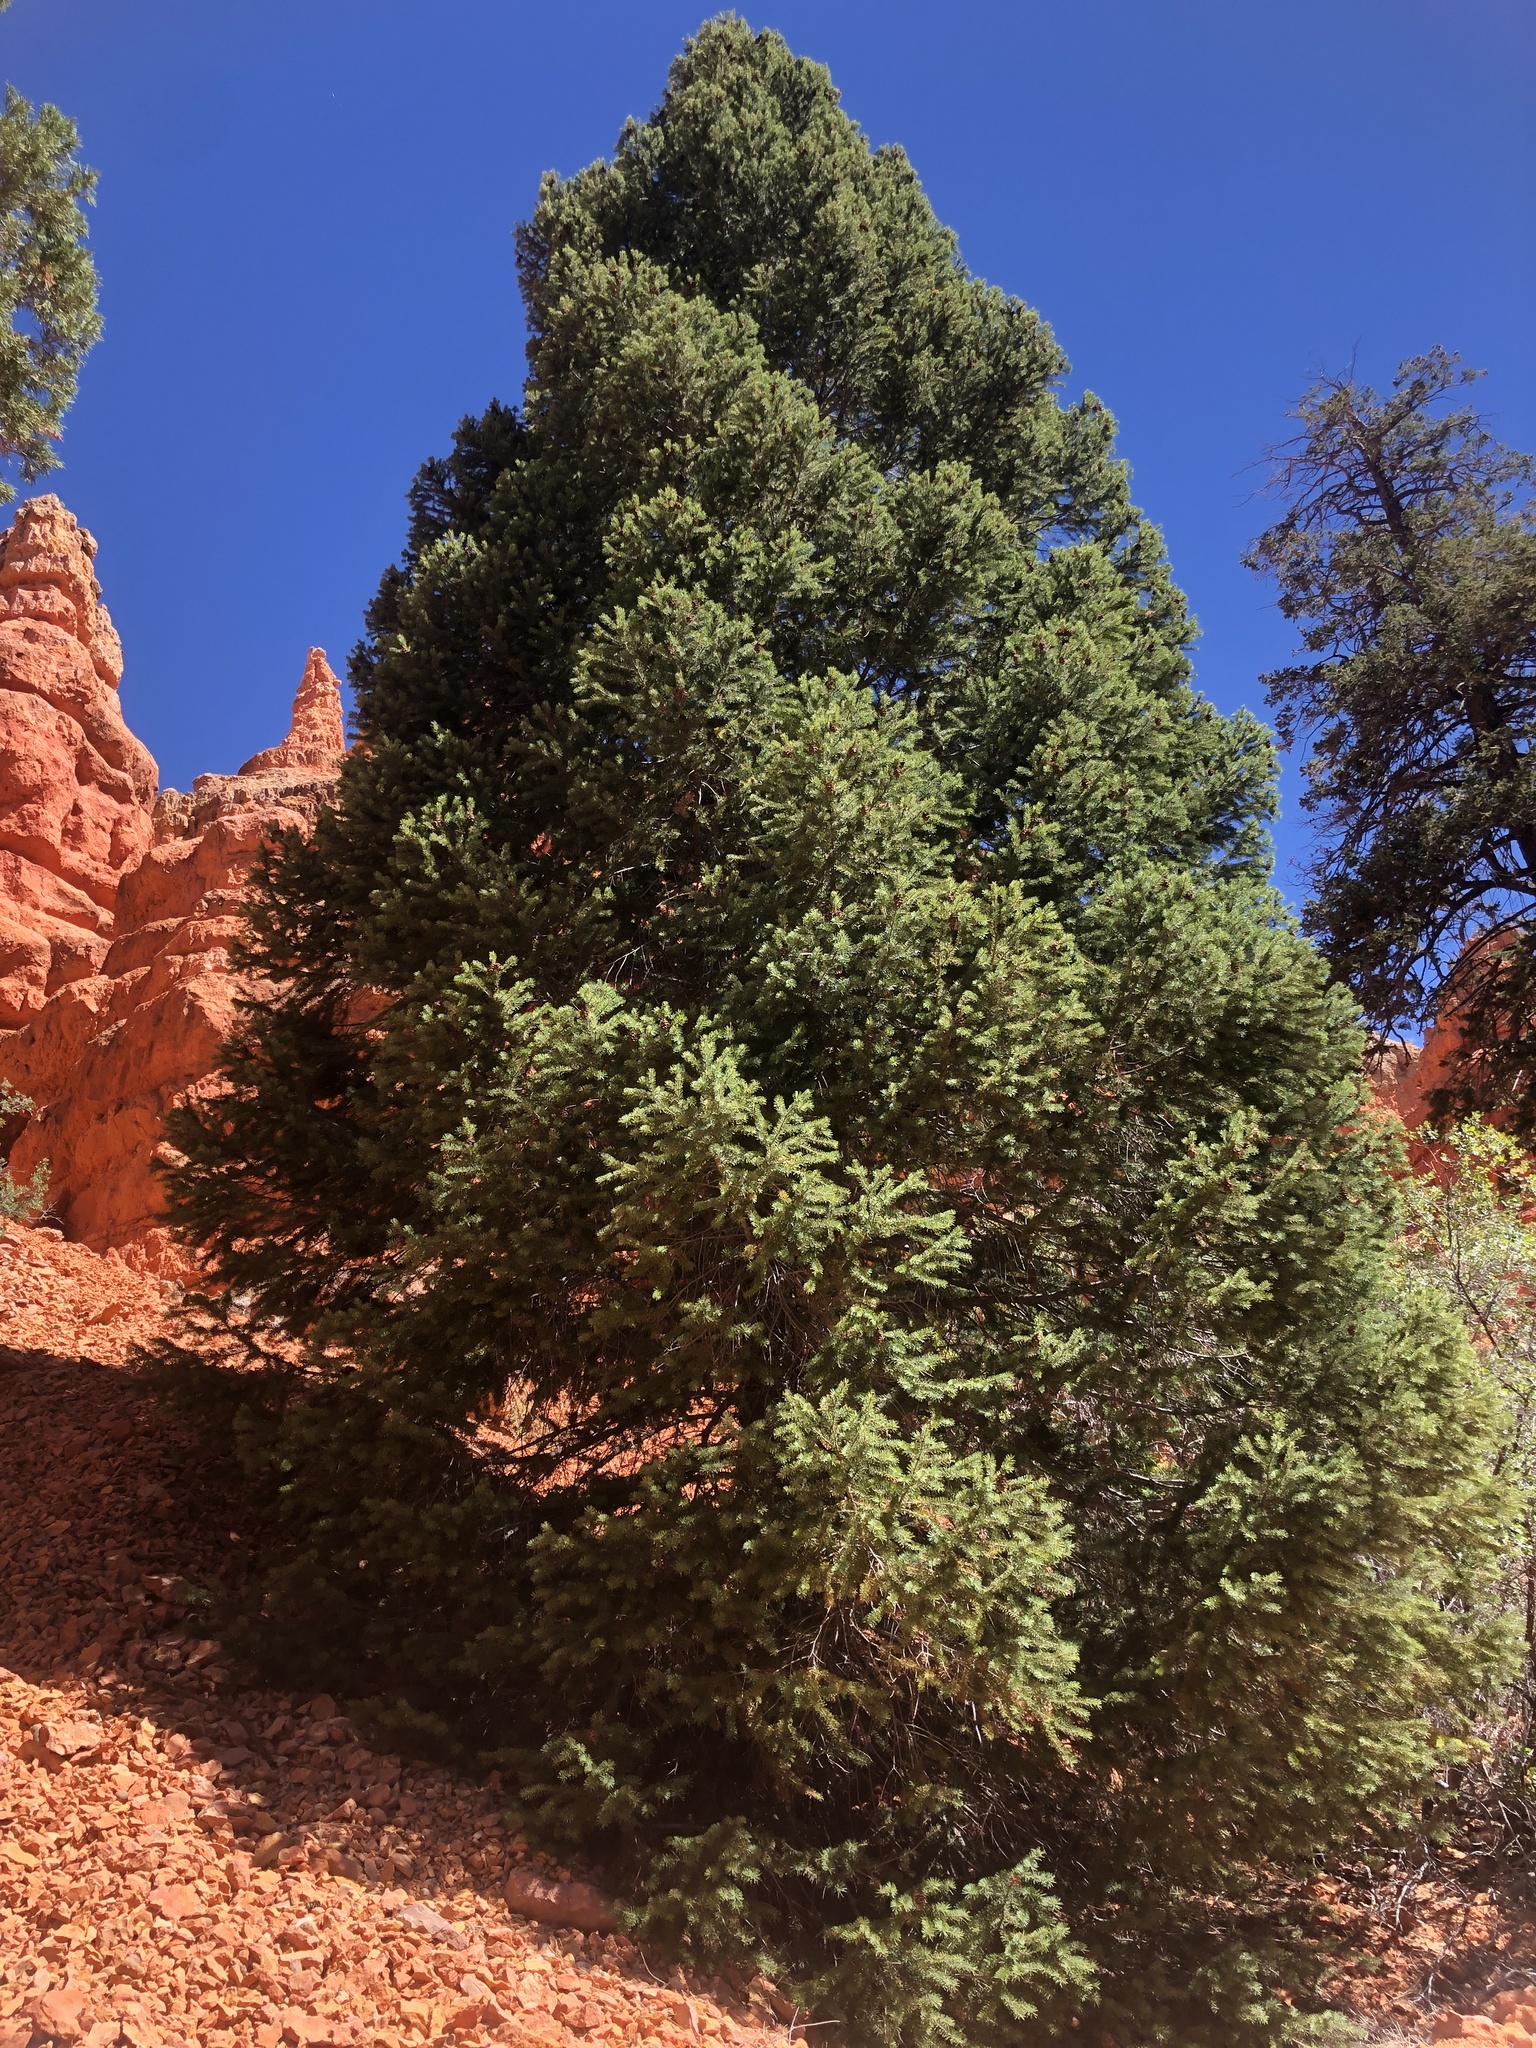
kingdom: Plantae
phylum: Tracheophyta
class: Pinopsida
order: Pinales
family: Pinaceae
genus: Pseudotsuga
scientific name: Pseudotsuga menziesii
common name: Douglas fir
